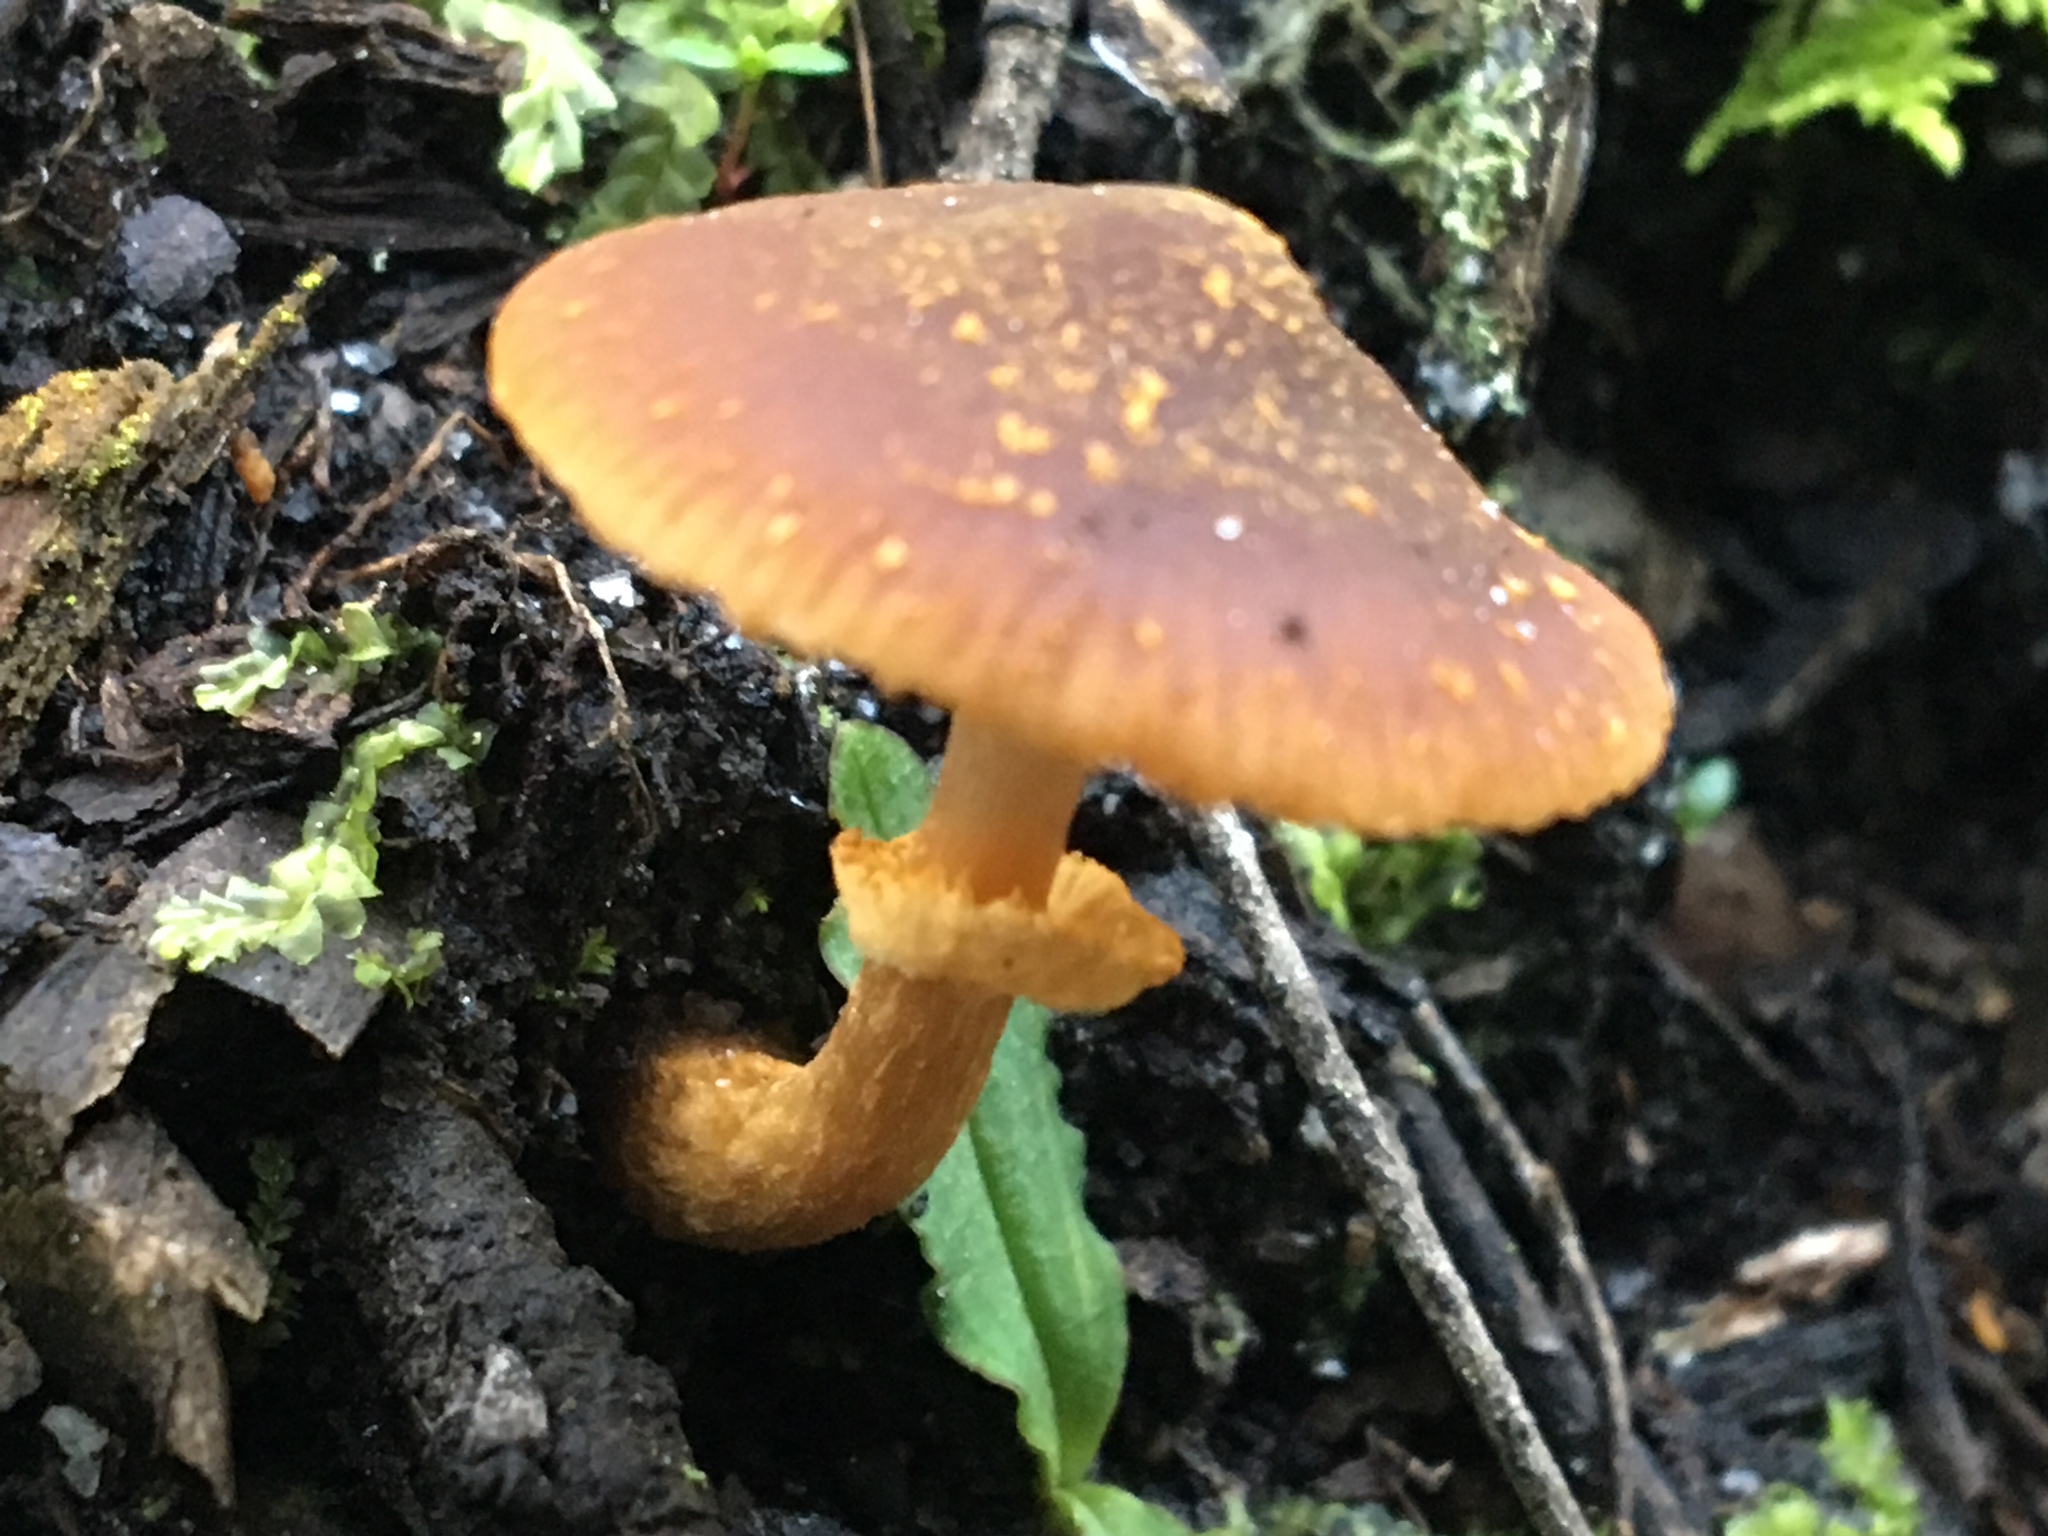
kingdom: Fungi
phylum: Basidiomycota
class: Agaricomycetes
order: Agaricales
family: Bolbitiaceae
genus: Descolea
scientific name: Descolea recedens
